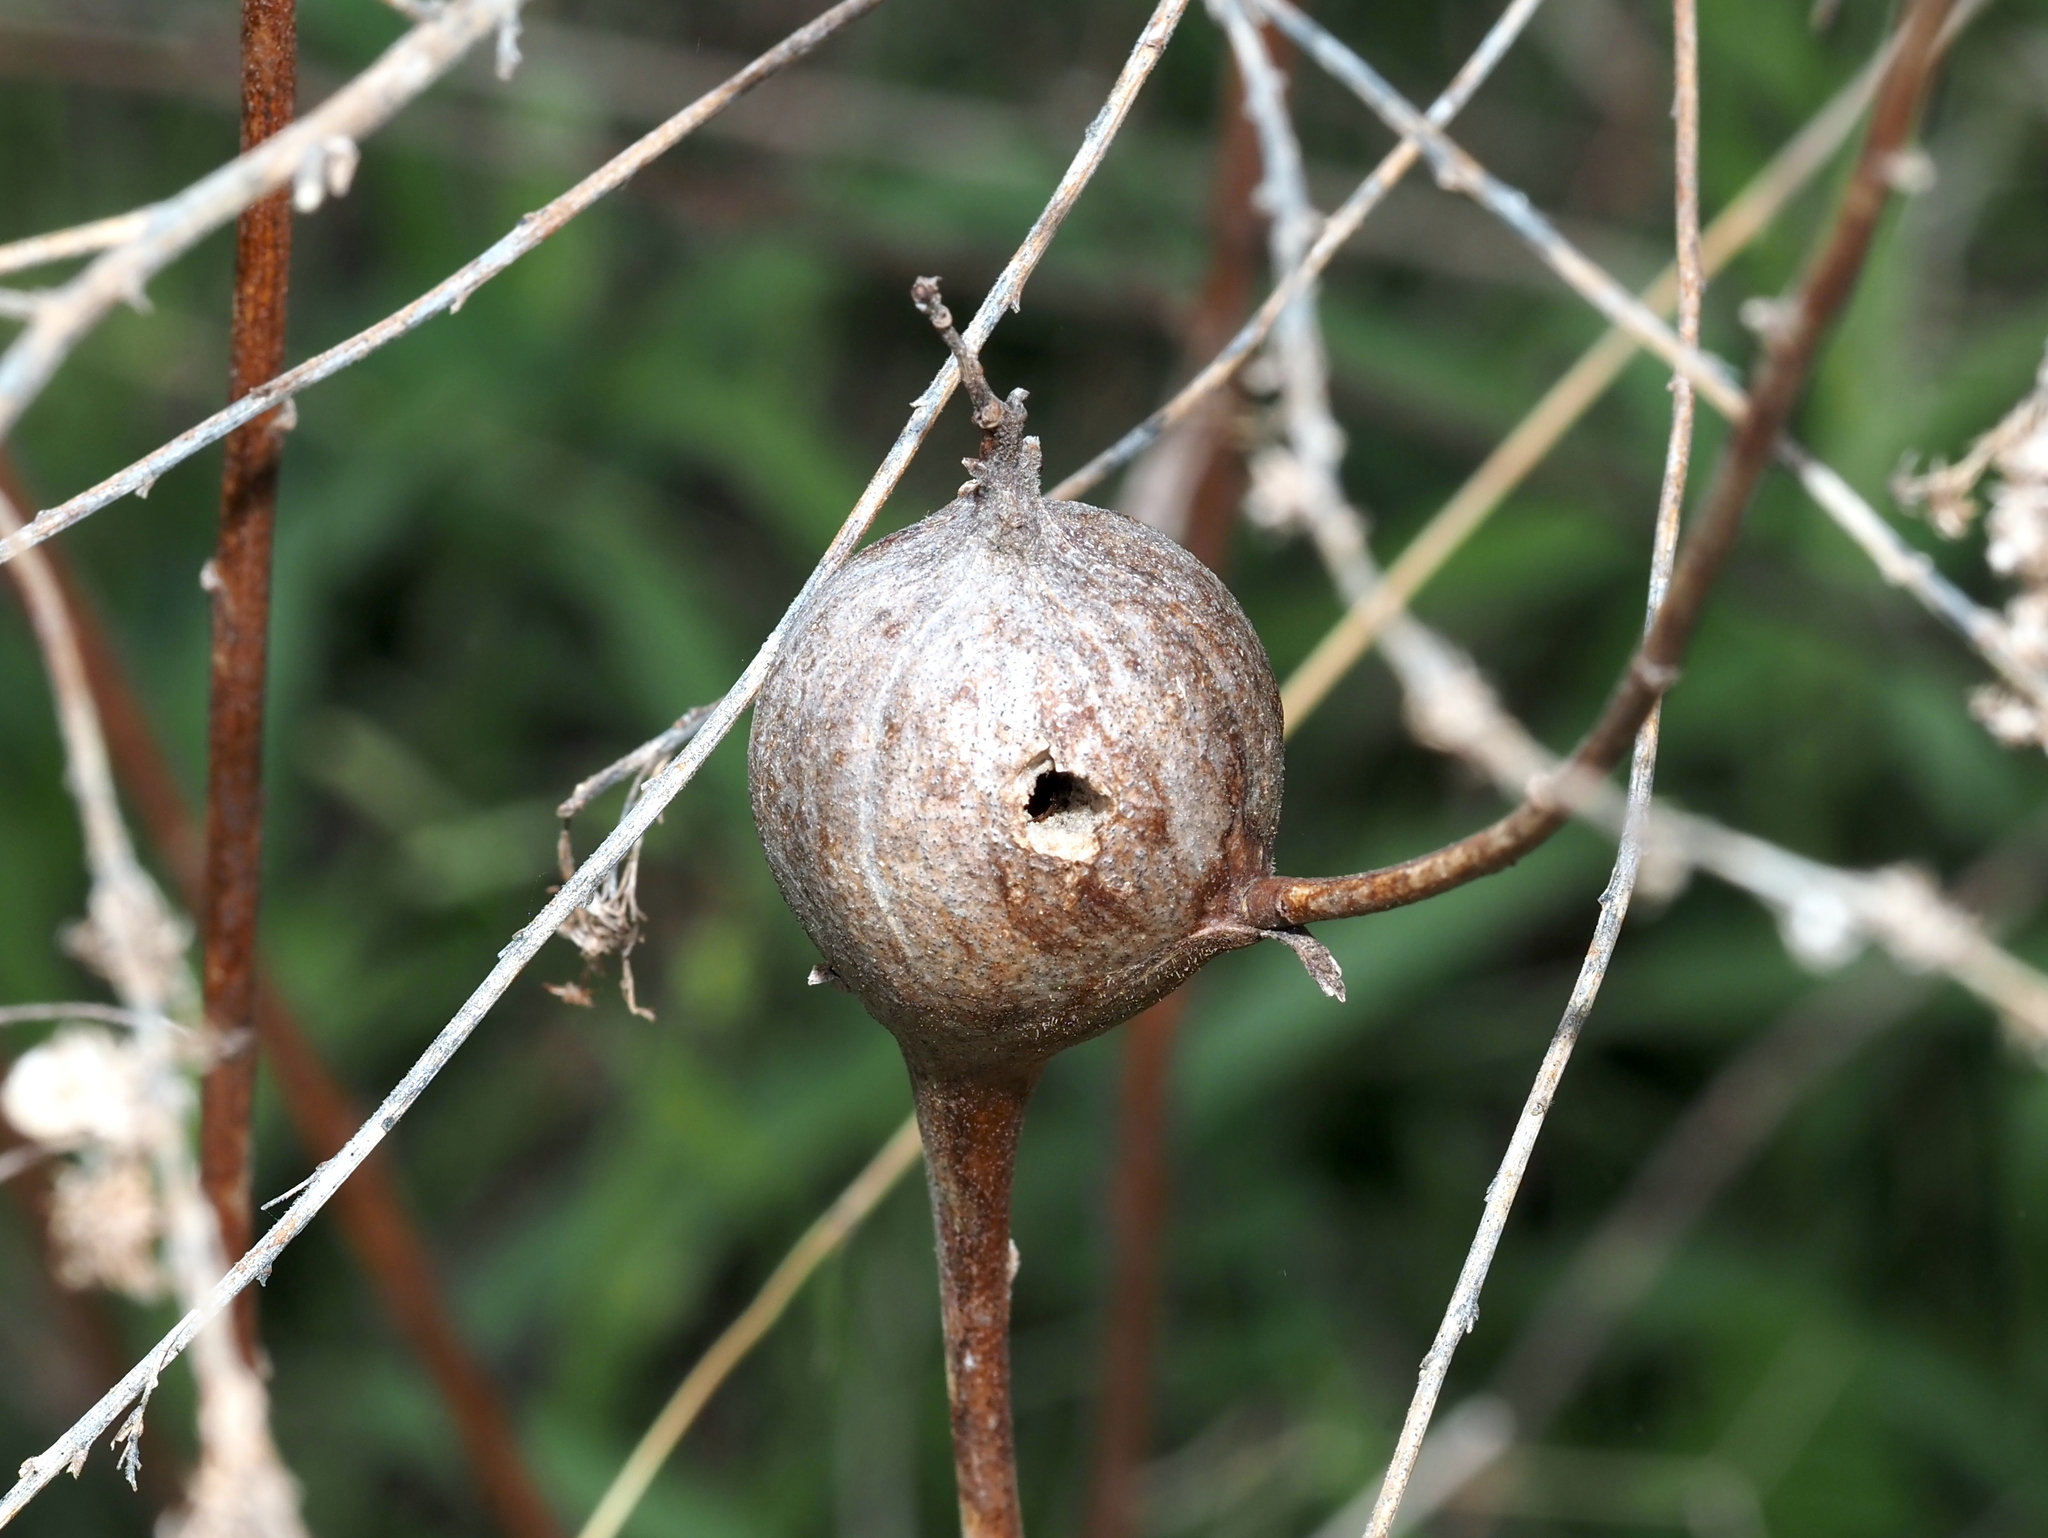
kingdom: Animalia
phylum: Arthropoda
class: Insecta
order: Diptera
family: Tephritidae
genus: Eurosta
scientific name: Eurosta solidaginis
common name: Goldenrod gall fly
